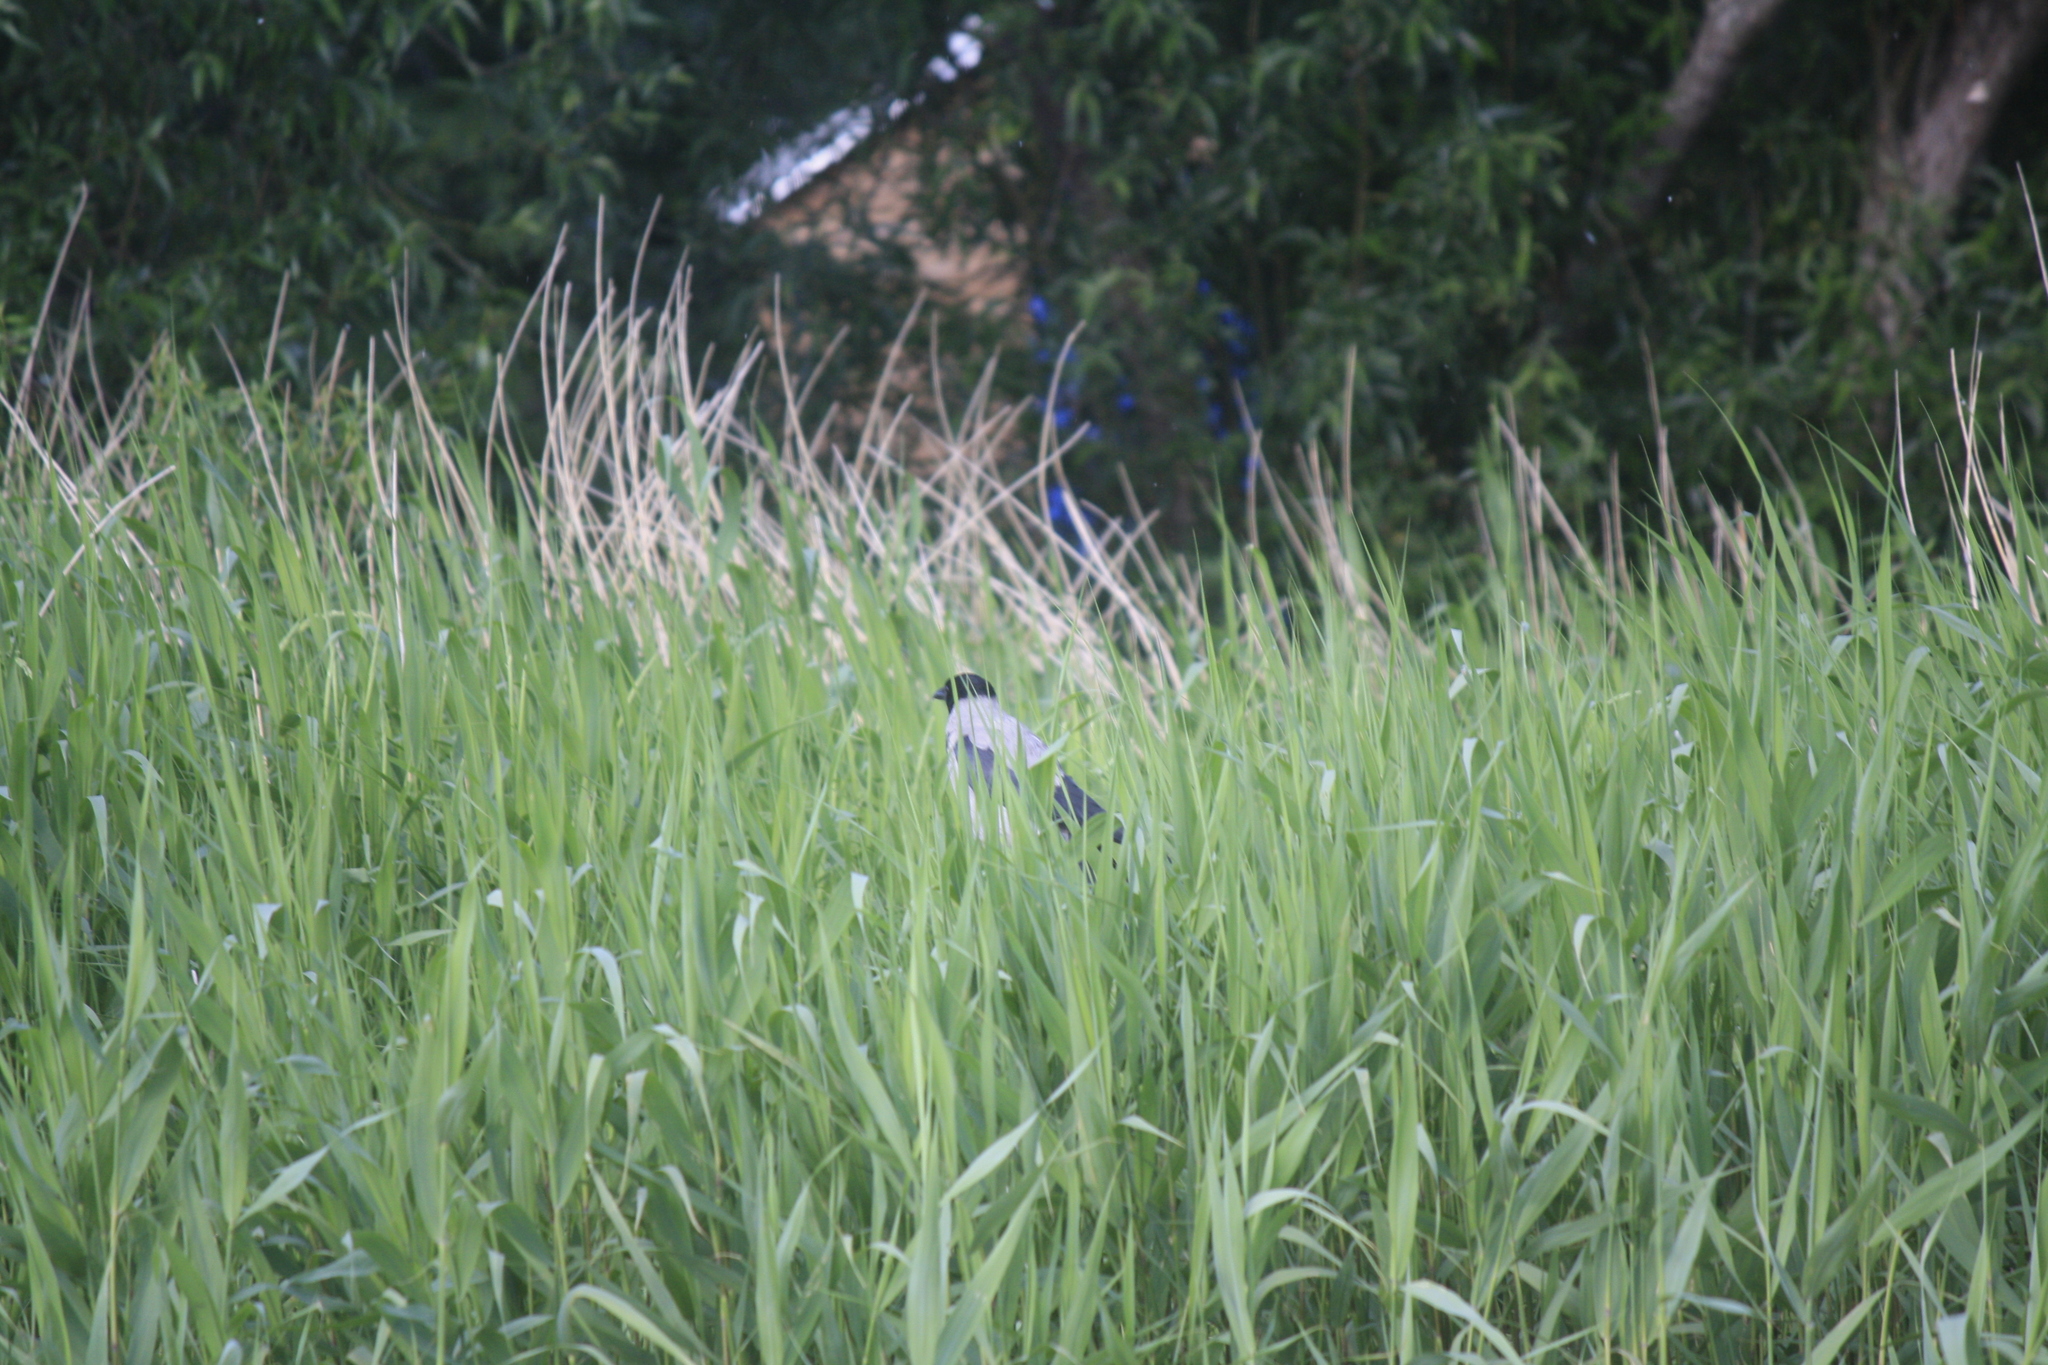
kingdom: Animalia
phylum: Chordata
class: Aves
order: Passeriformes
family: Corvidae
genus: Corvus
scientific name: Corvus cornix
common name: Hooded crow
